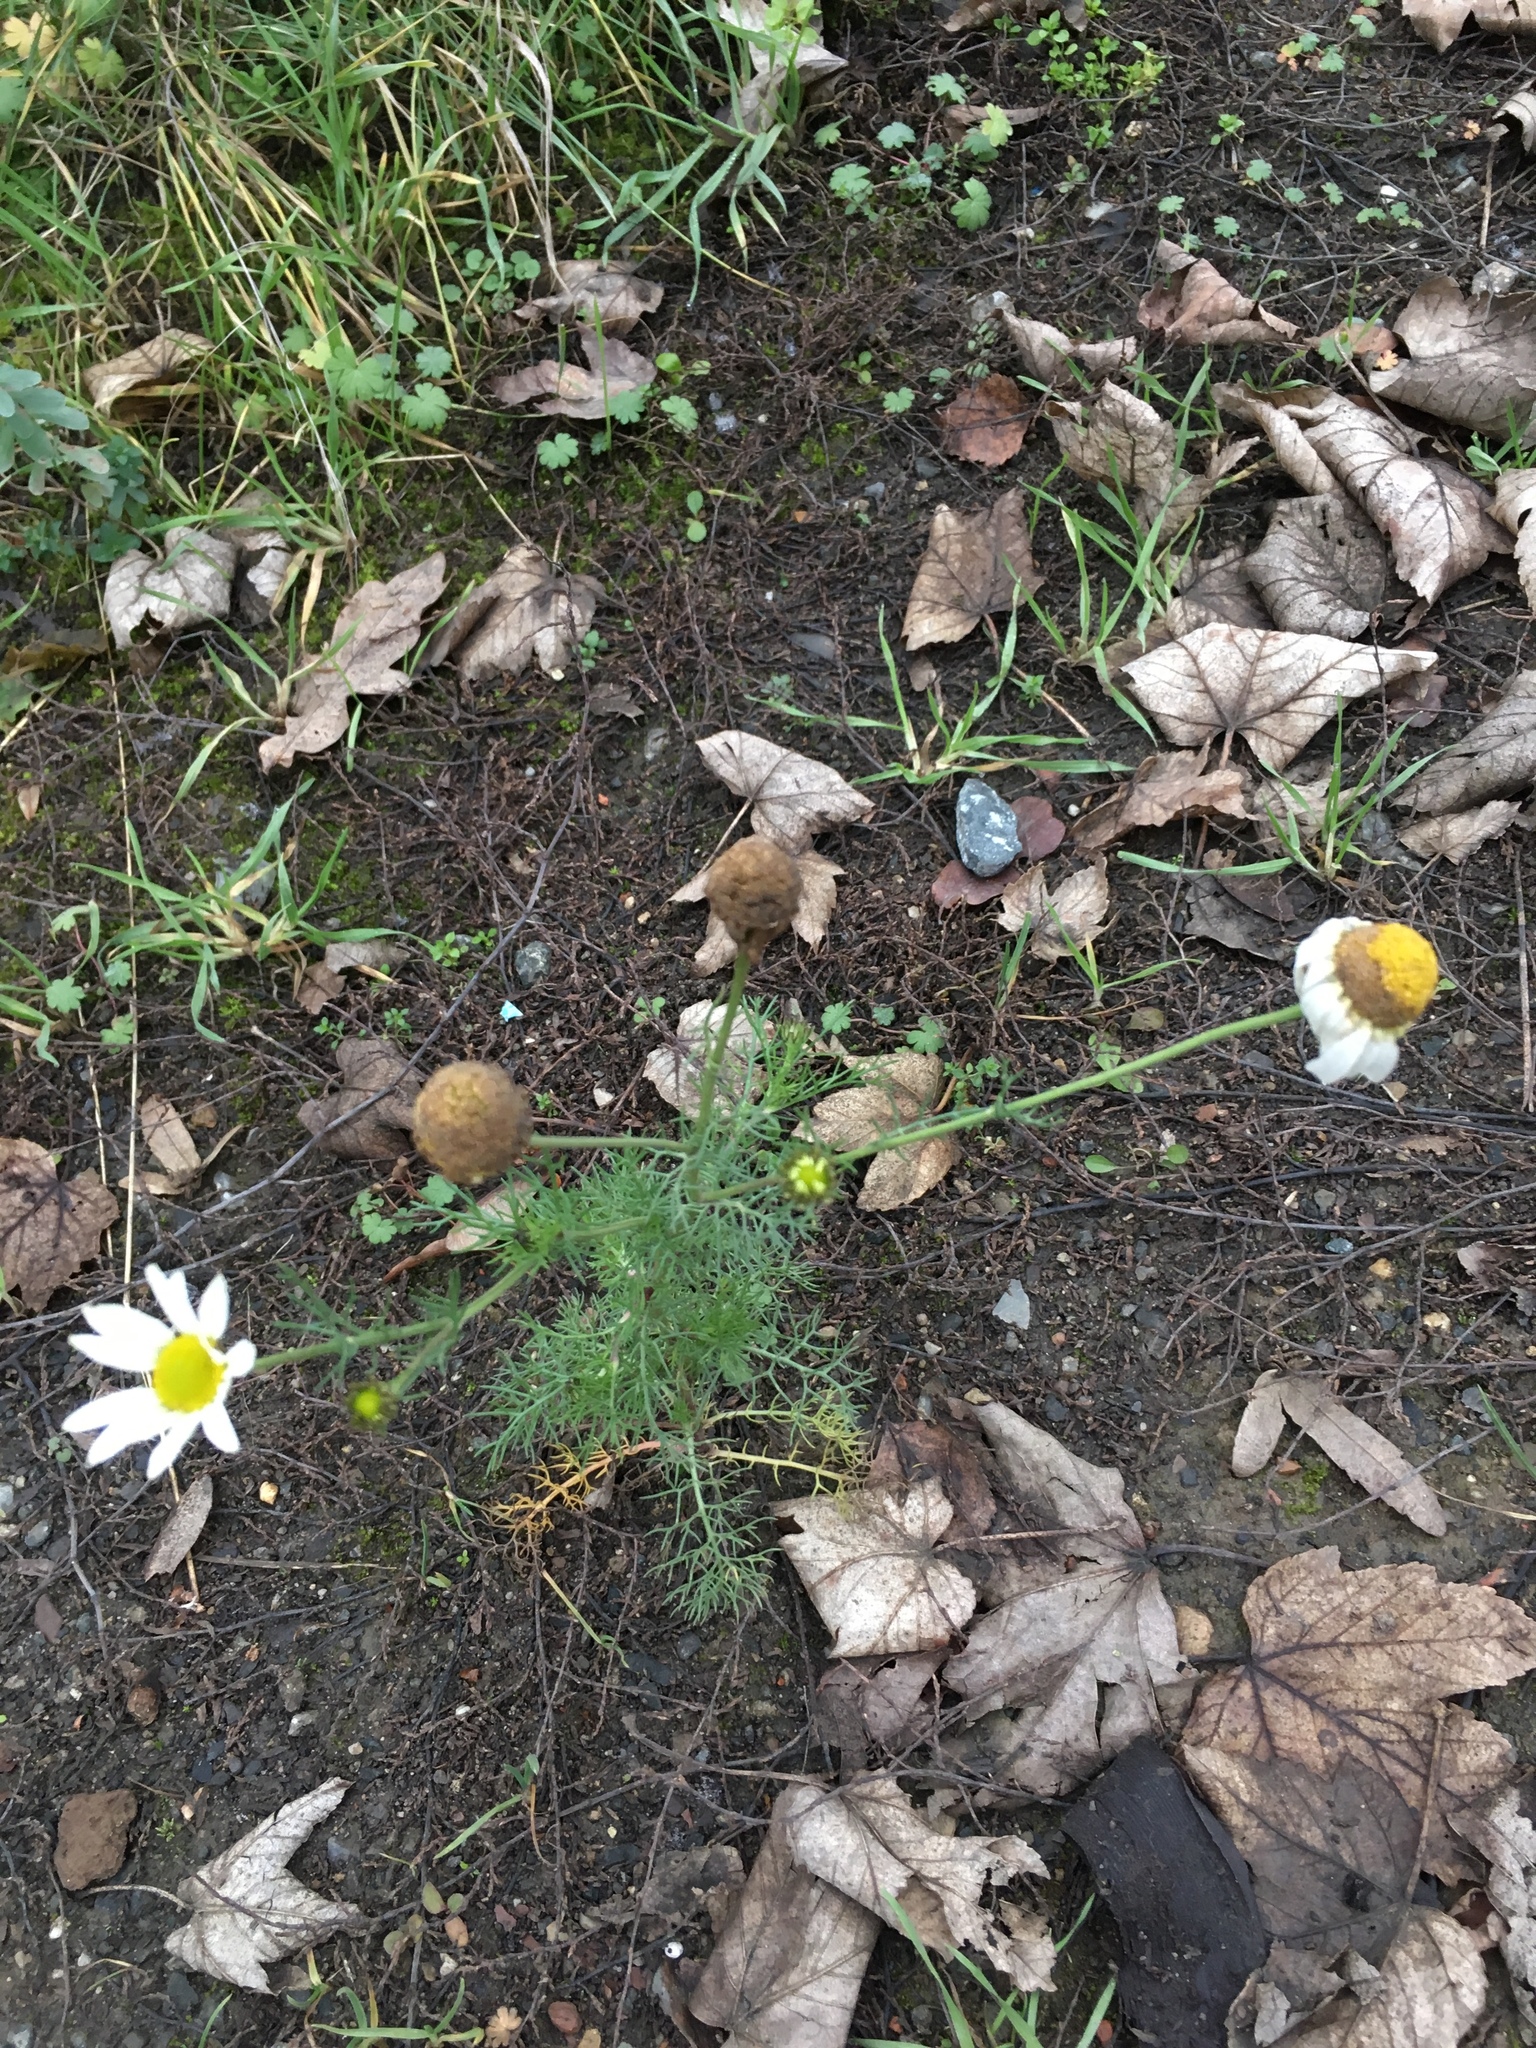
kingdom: Plantae
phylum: Tracheophyta
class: Magnoliopsida
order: Asterales
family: Asteraceae
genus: Tripleurospermum
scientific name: Tripleurospermum inodorum
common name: Scentless mayweed
